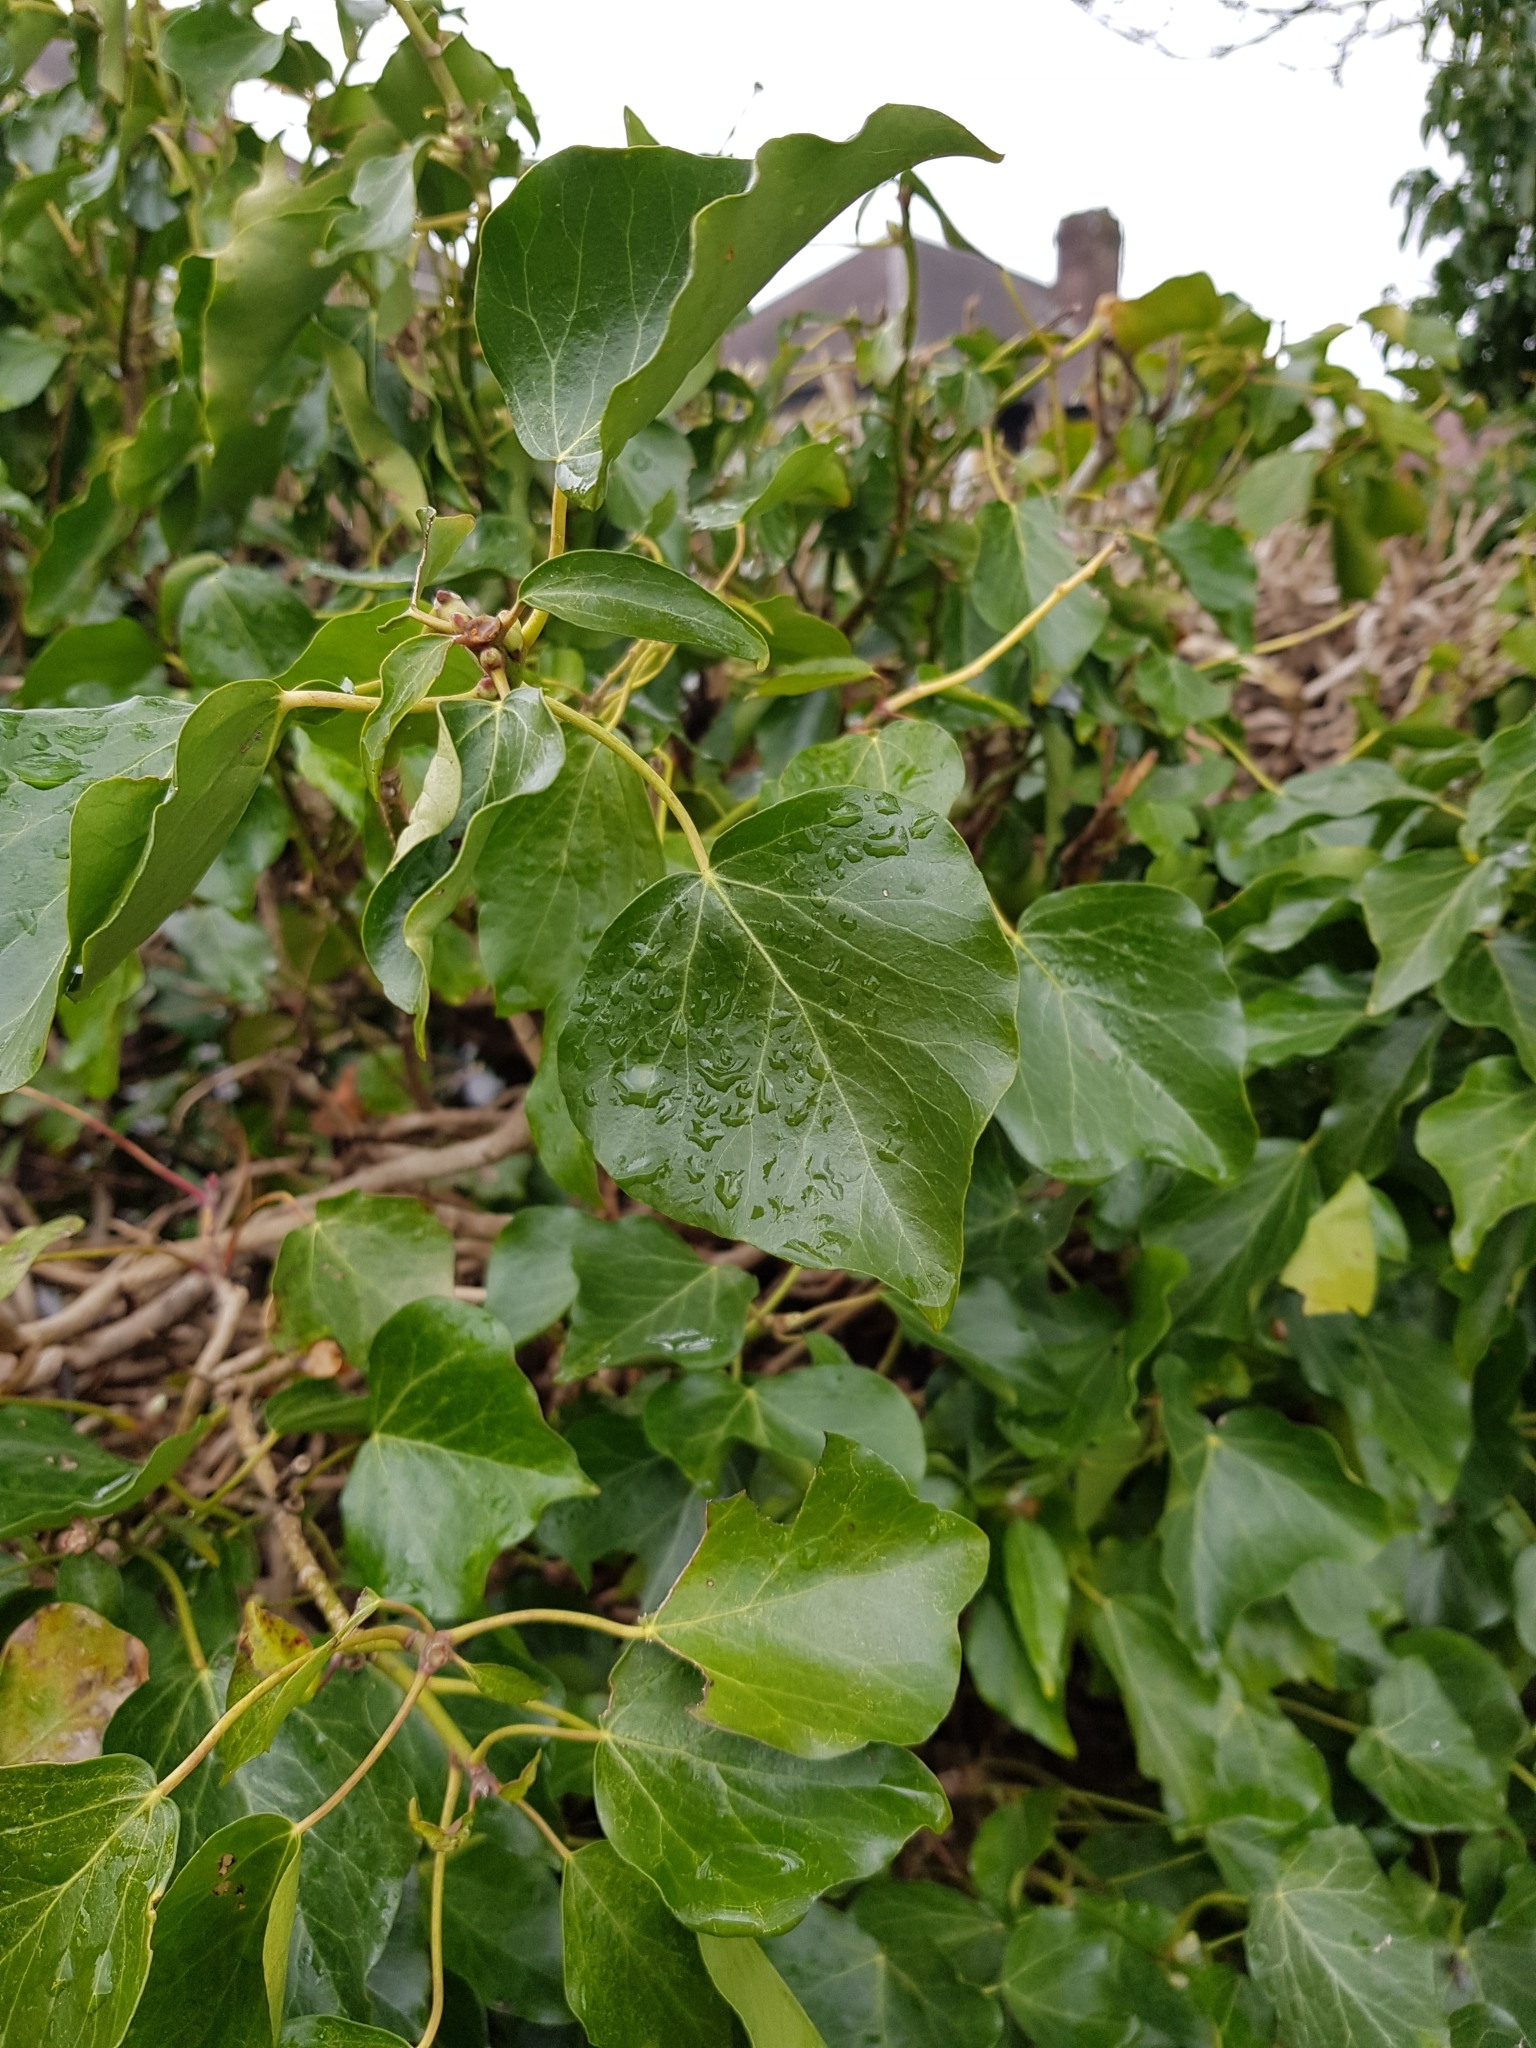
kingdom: Plantae
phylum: Tracheophyta
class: Magnoliopsida
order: Apiales
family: Araliaceae
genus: Hedera
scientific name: Hedera helix
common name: Ivy
